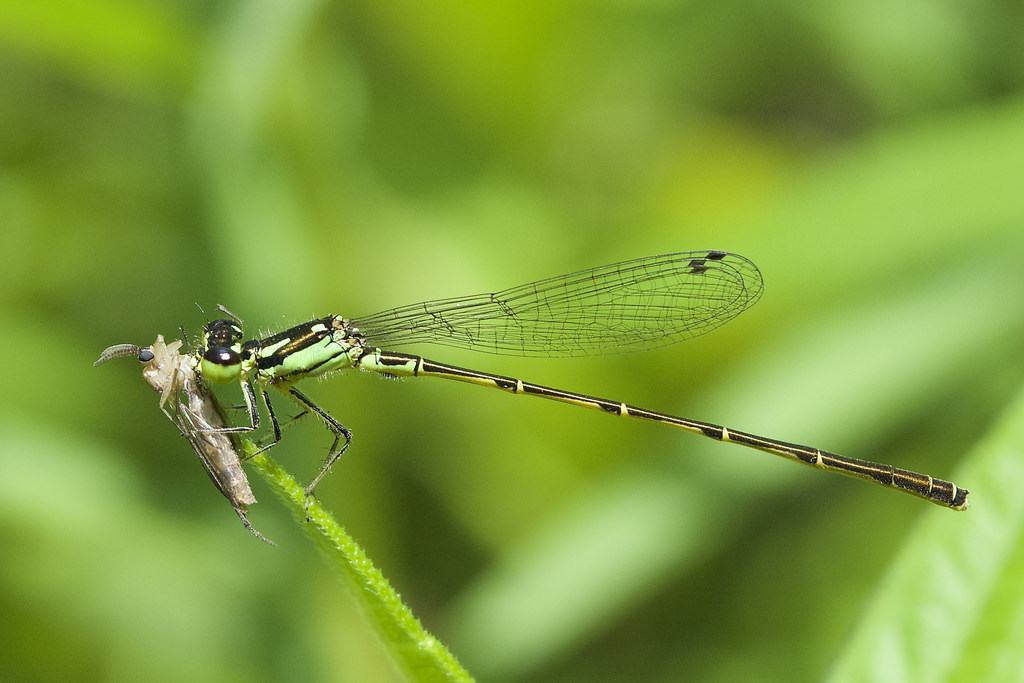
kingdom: Animalia
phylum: Arthropoda
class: Insecta
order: Odonata
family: Coenagrionidae
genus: Ischnura
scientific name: Ischnura posita
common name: Fragile forktail
